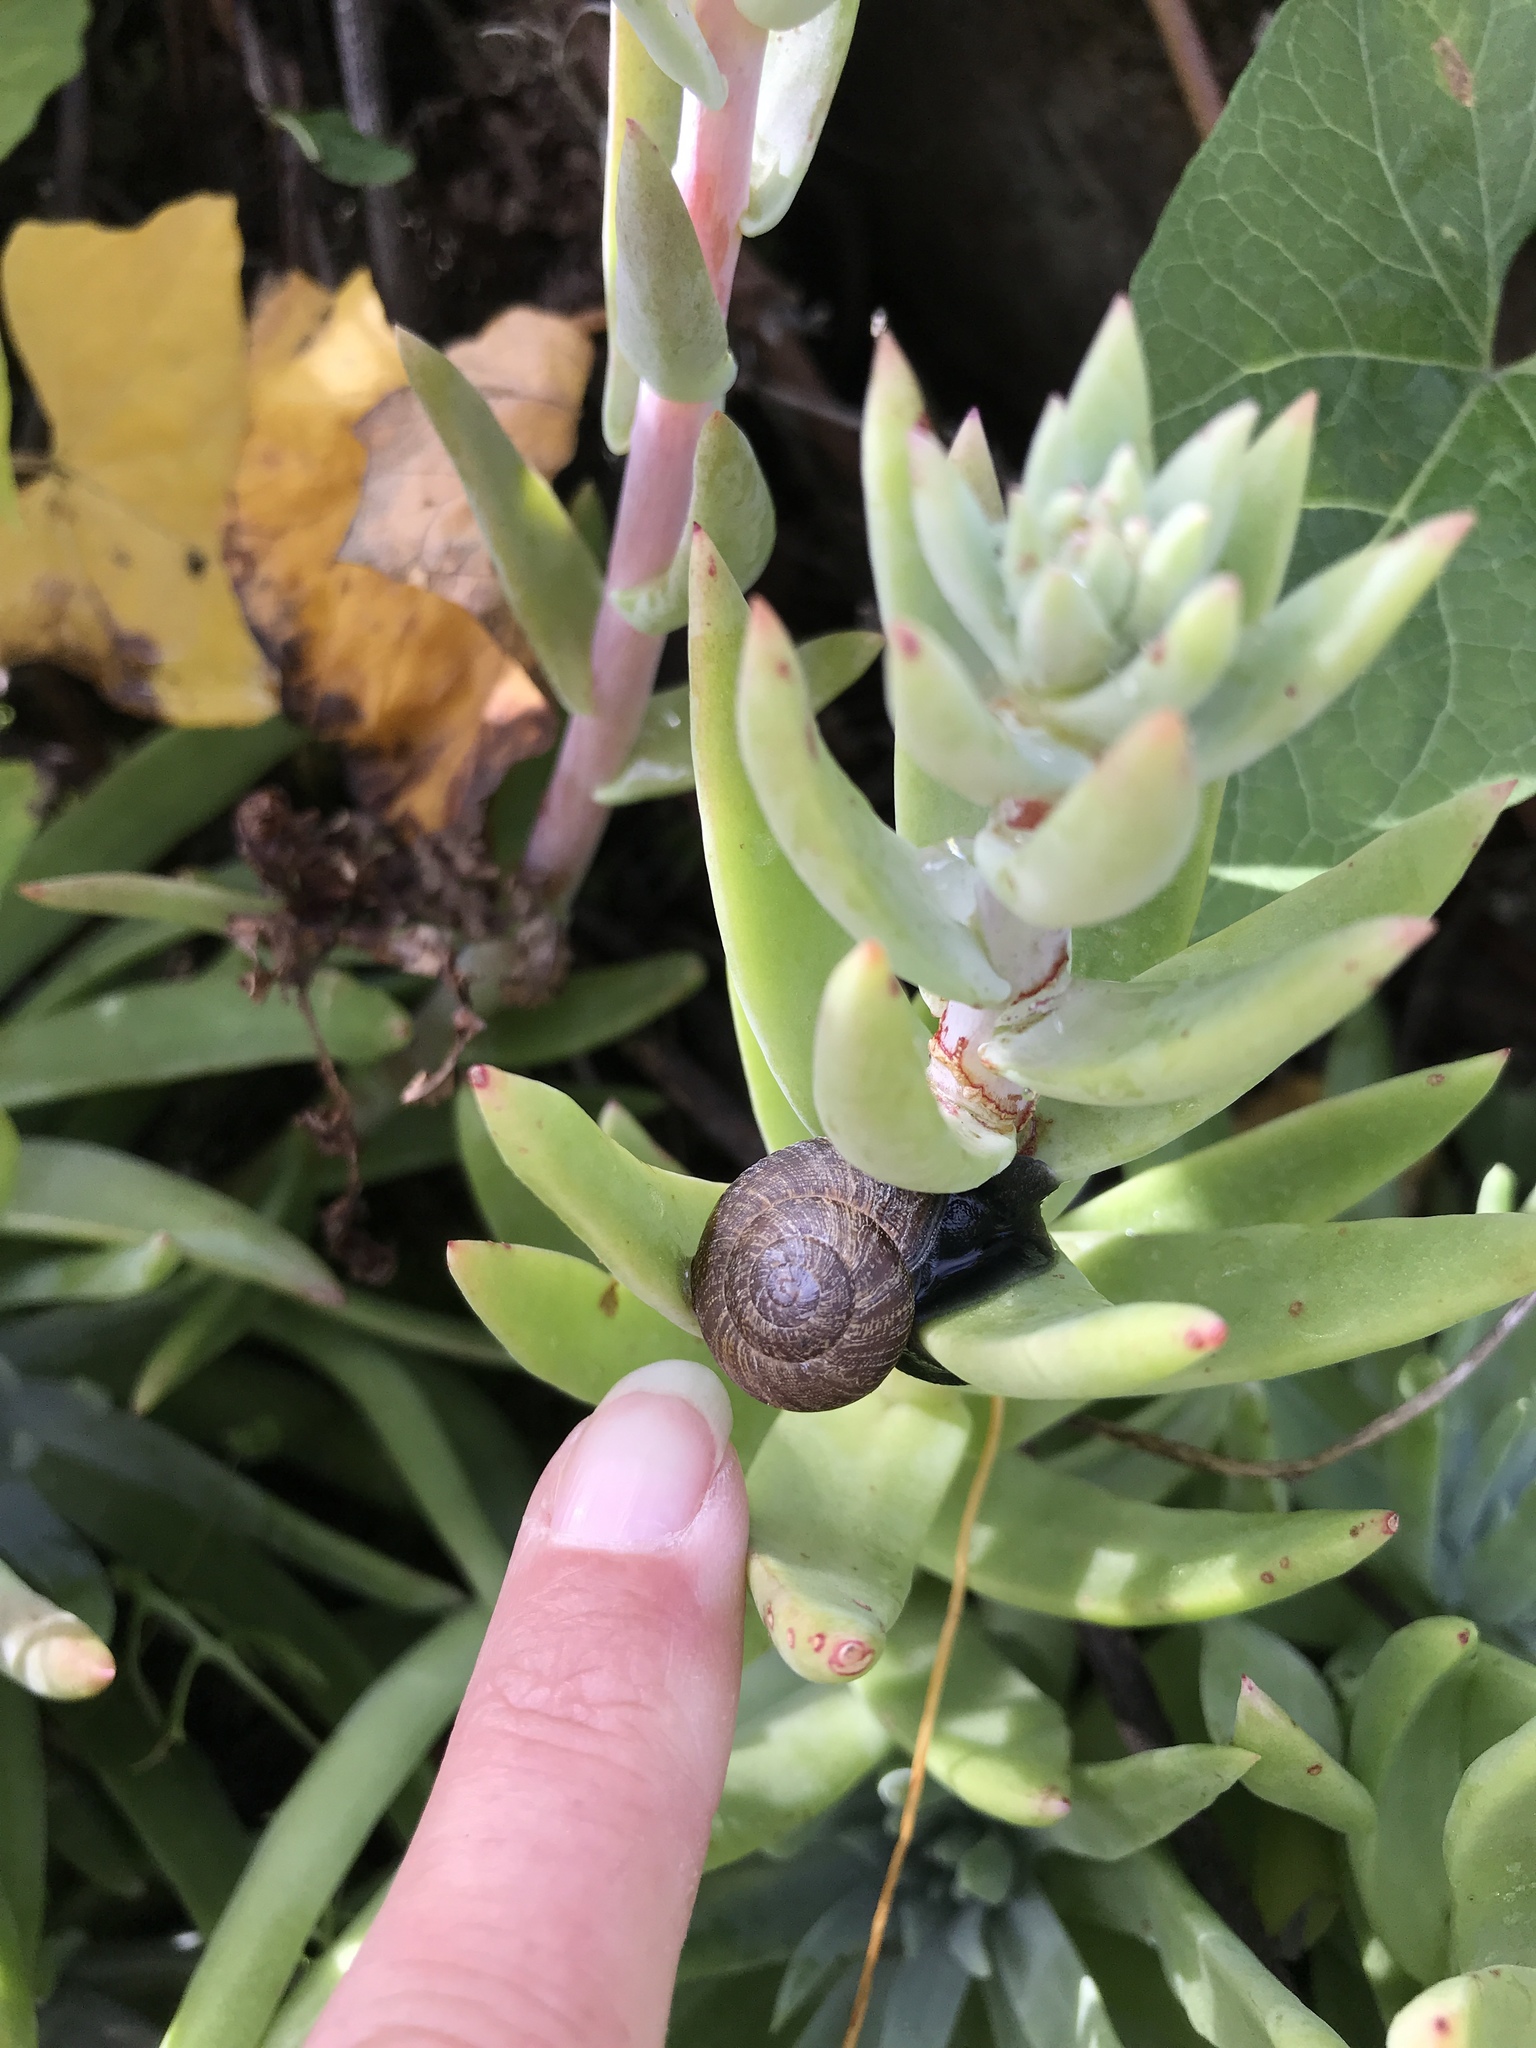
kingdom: Animalia
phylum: Mollusca
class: Gastropoda
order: Stylommatophora
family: Xanthonychidae
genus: Xerarionta
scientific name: Xerarionta intercisa
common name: Plain cactus snail
